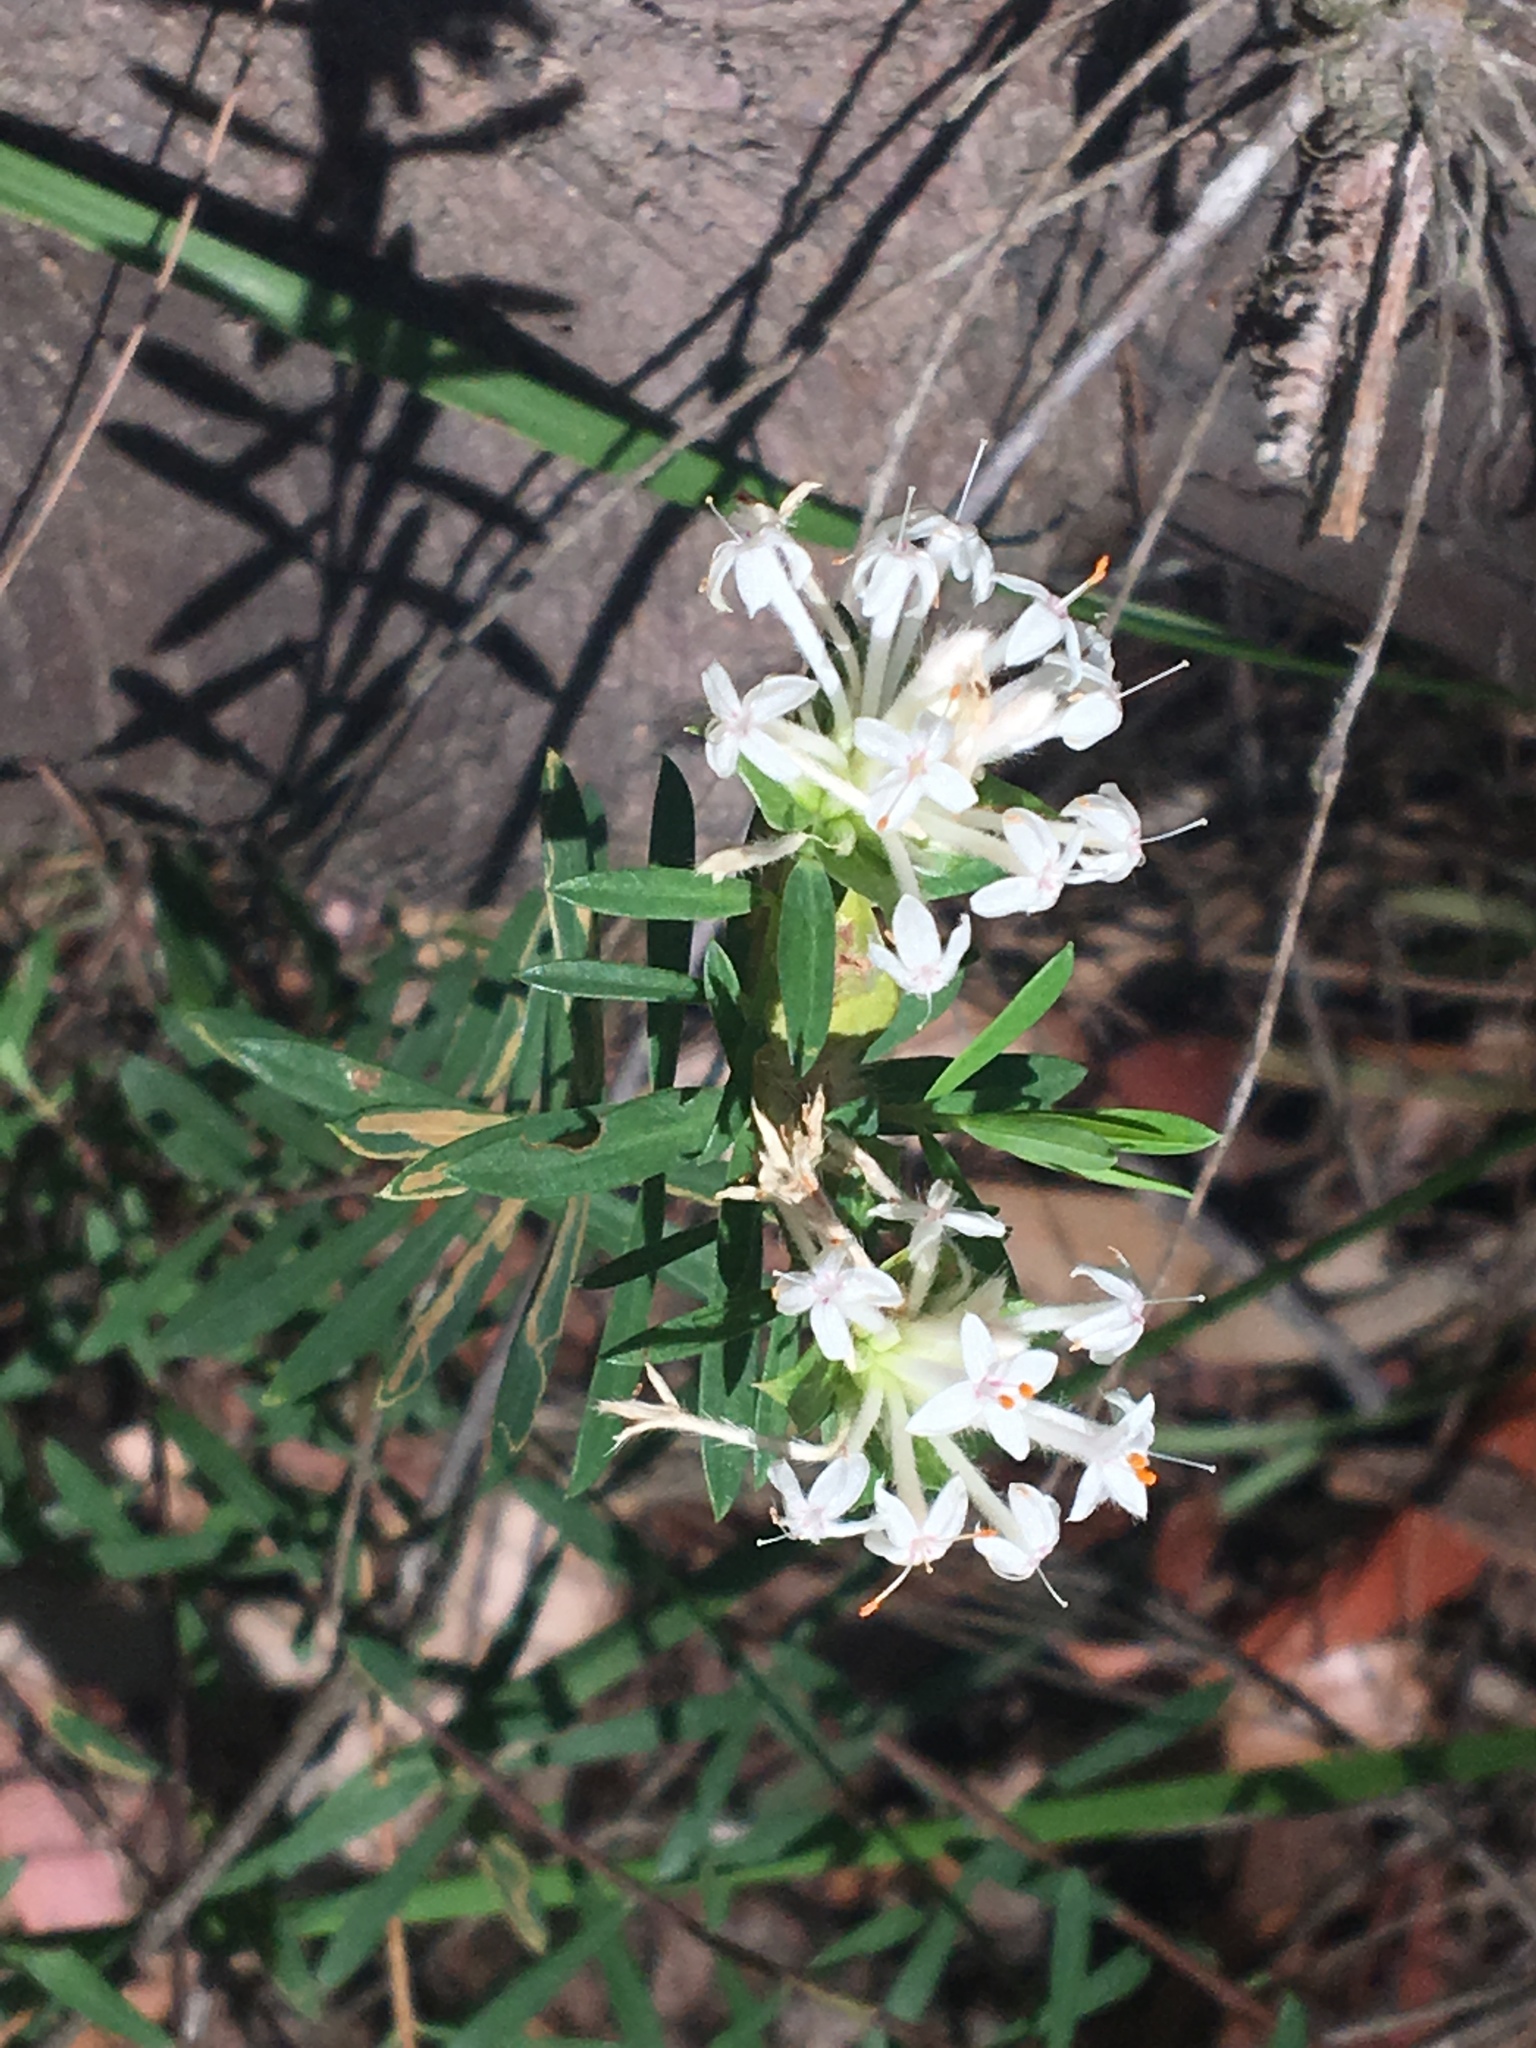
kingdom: Plantae
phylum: Tracheophyta
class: Magnoliopsida
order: Malvales
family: Thymelaeaceae
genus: Pimelea
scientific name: Pimelea linifolia
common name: Queen-of-the-bush
